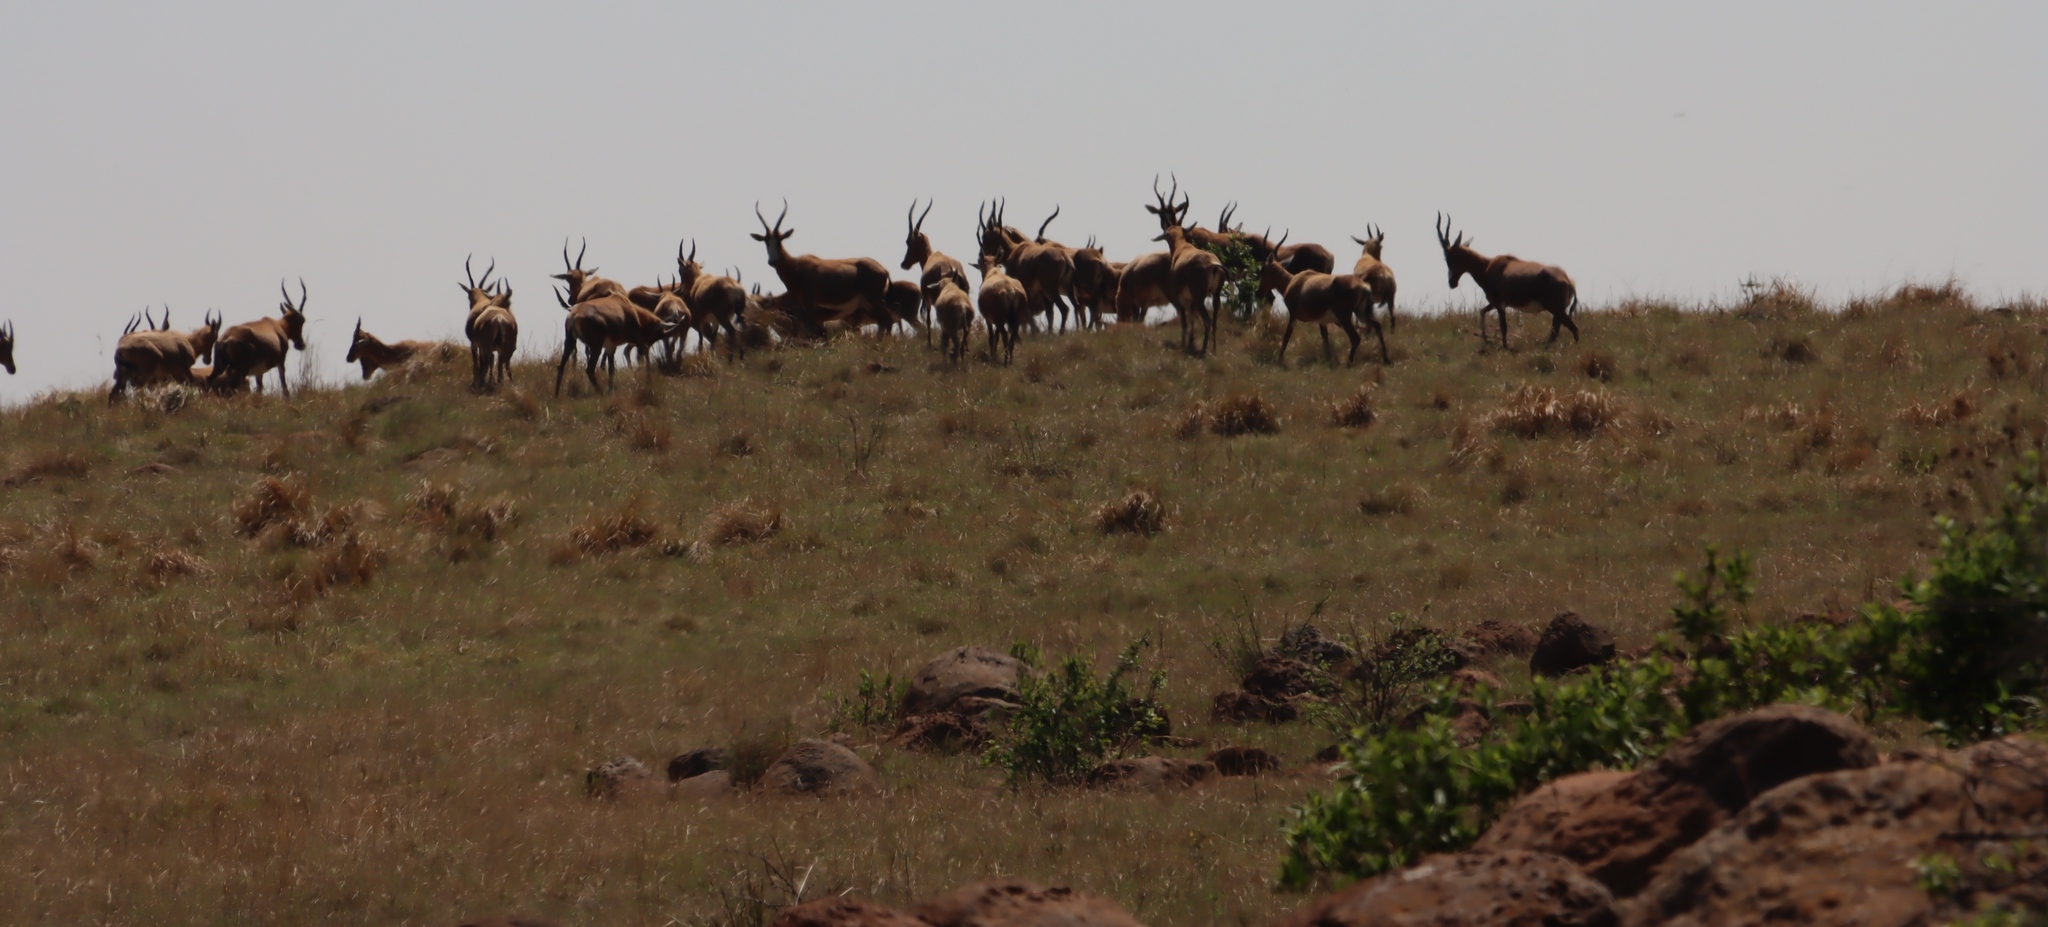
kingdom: Animalia
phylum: Chordata
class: Mammalia
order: Artiodactyla
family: Bovidae
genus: Damaliscus
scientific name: Damaliscus pygargus
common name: Bontebok
